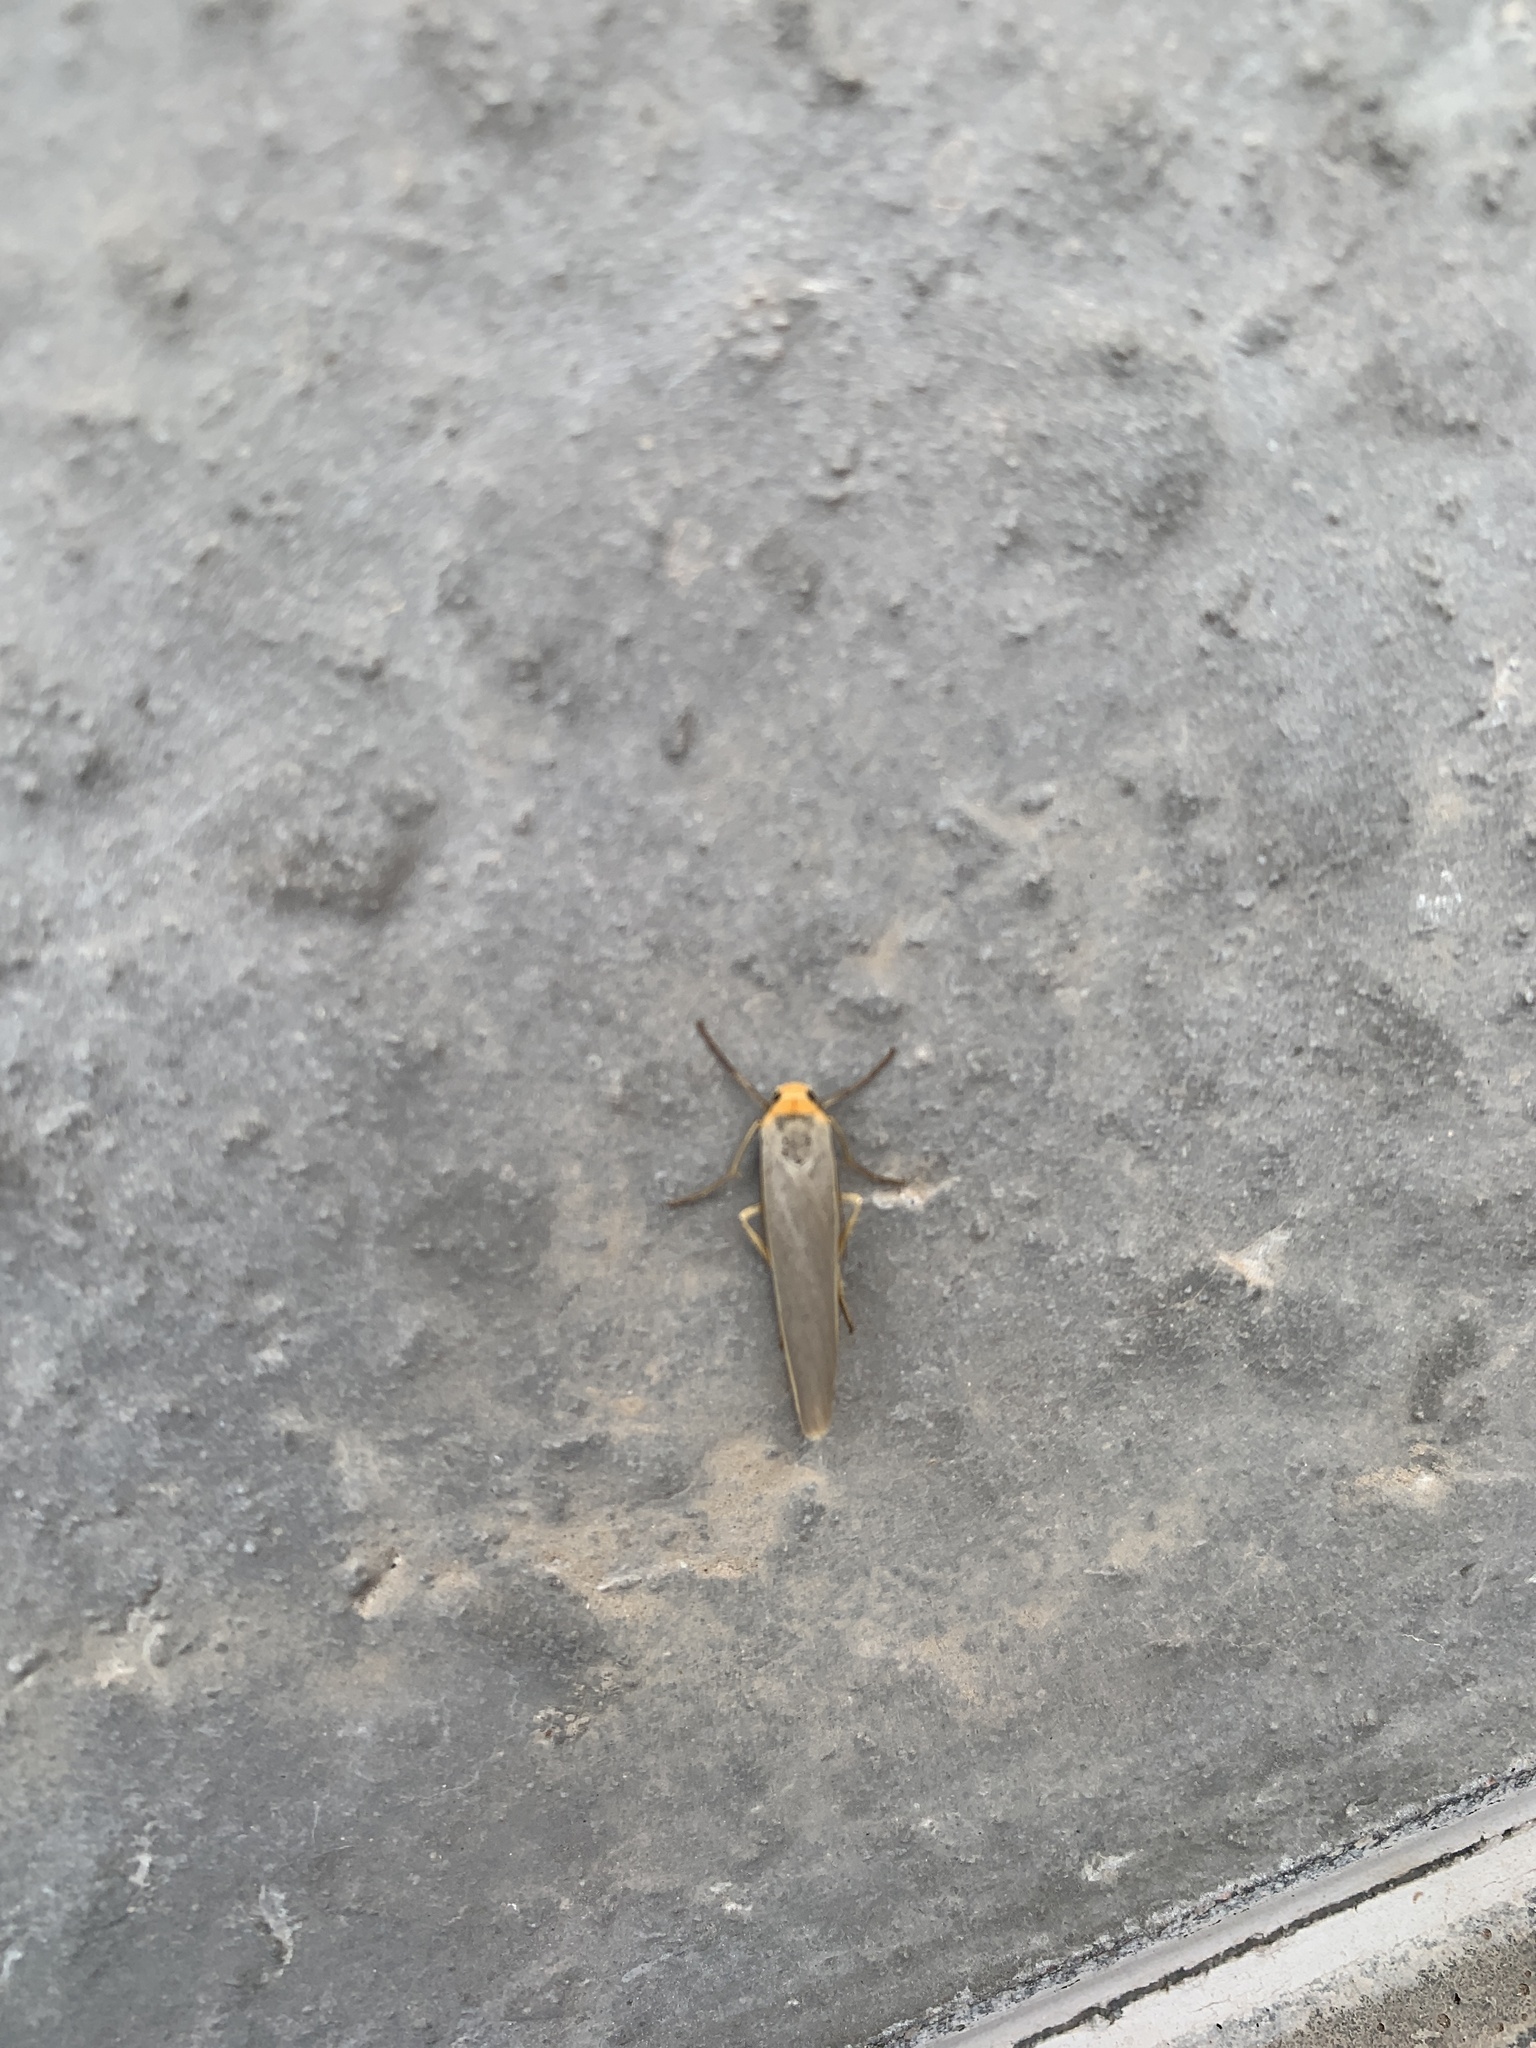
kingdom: Animalia
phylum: Arthropoda
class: Insecta
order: Lepidoptera
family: Erebidae
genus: Manulea
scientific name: Manulea complana
